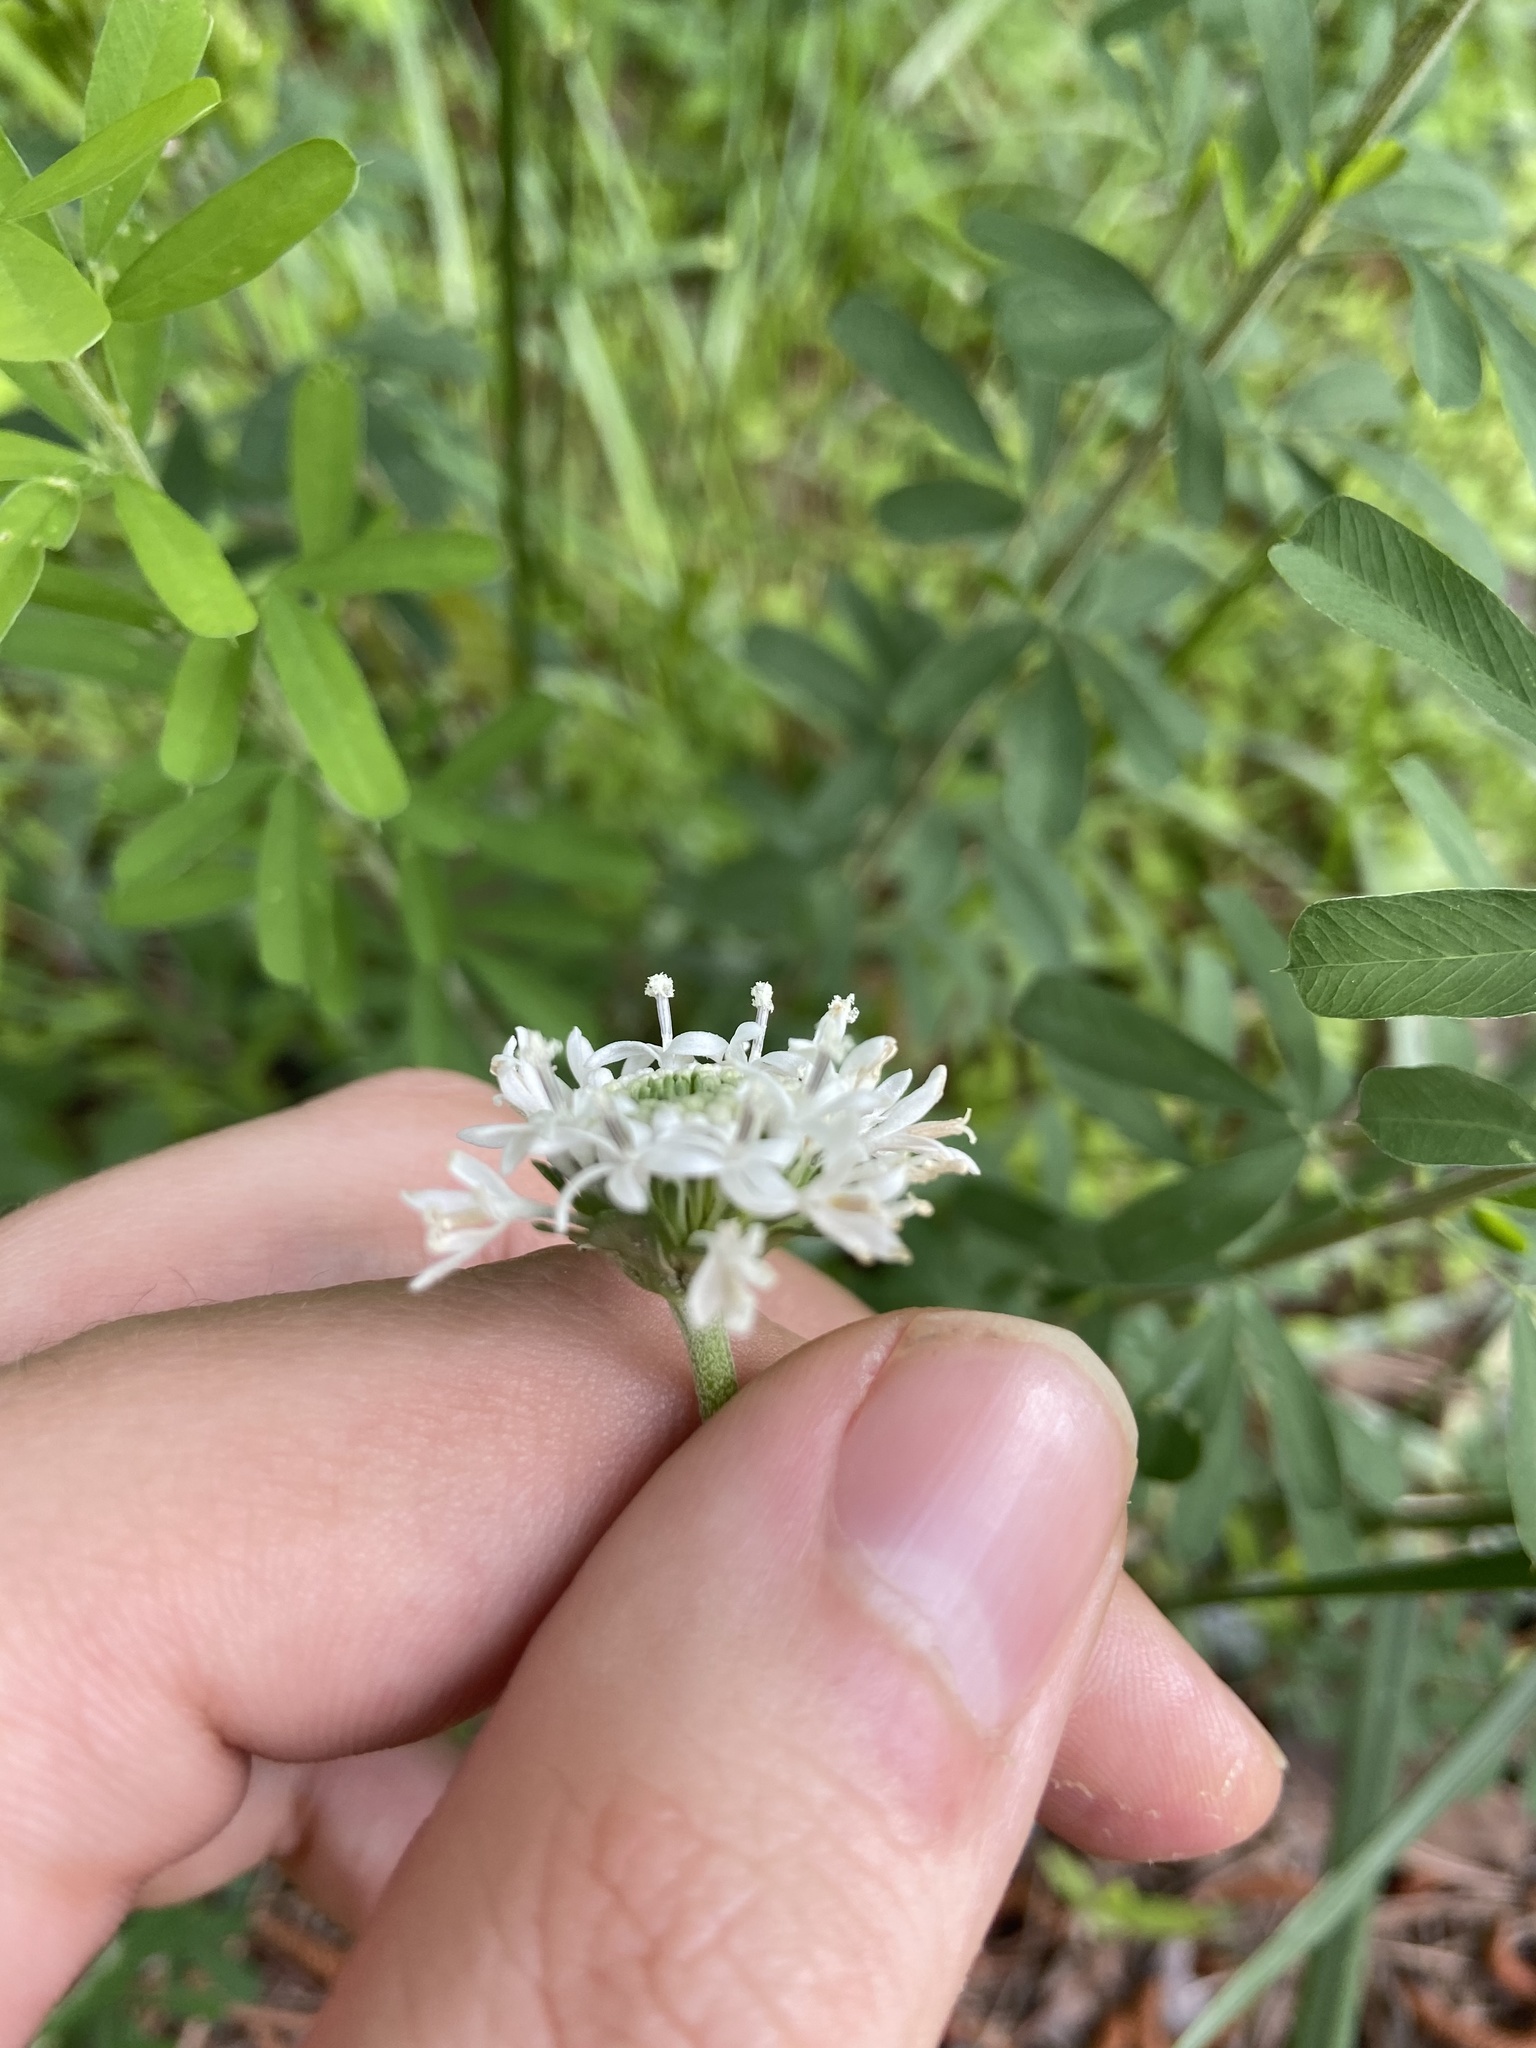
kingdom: Plantae
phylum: Tracheophyta
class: Magnoliopsida
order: Asterales
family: Asteraceae
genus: Marshallia
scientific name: Marshallia obovata
